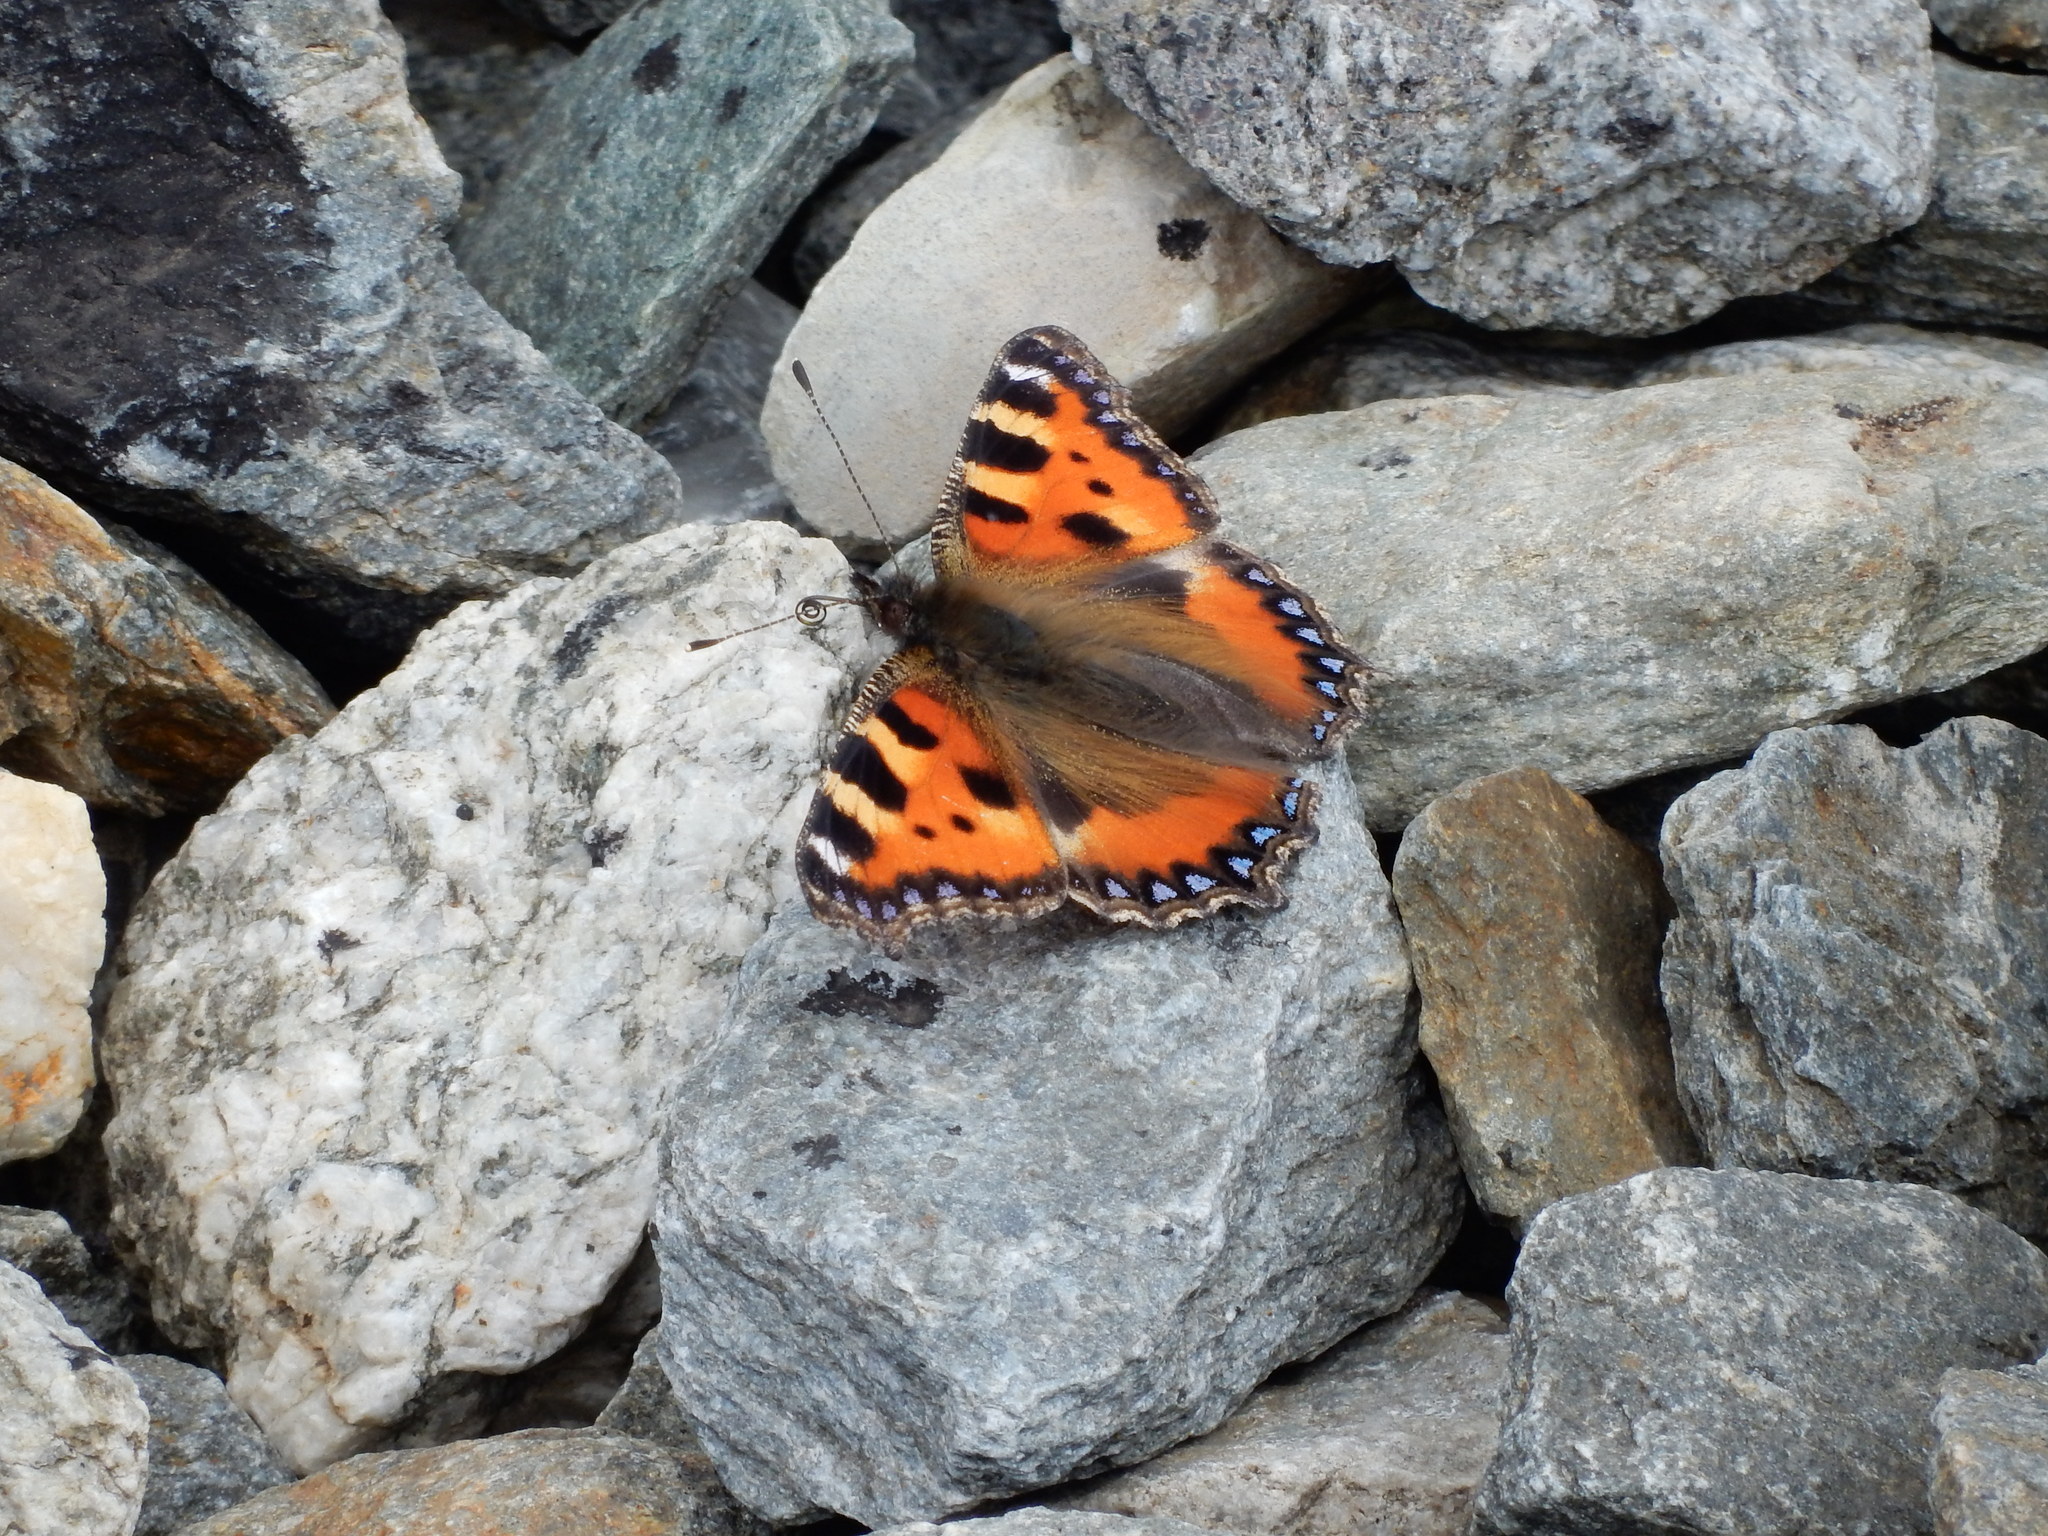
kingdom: Animalia
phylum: Arthropoda
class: Insecta
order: Lepidoptera
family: Nymphalidae
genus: Aglais
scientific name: Aglais urticae
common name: Small tortoiseshell
